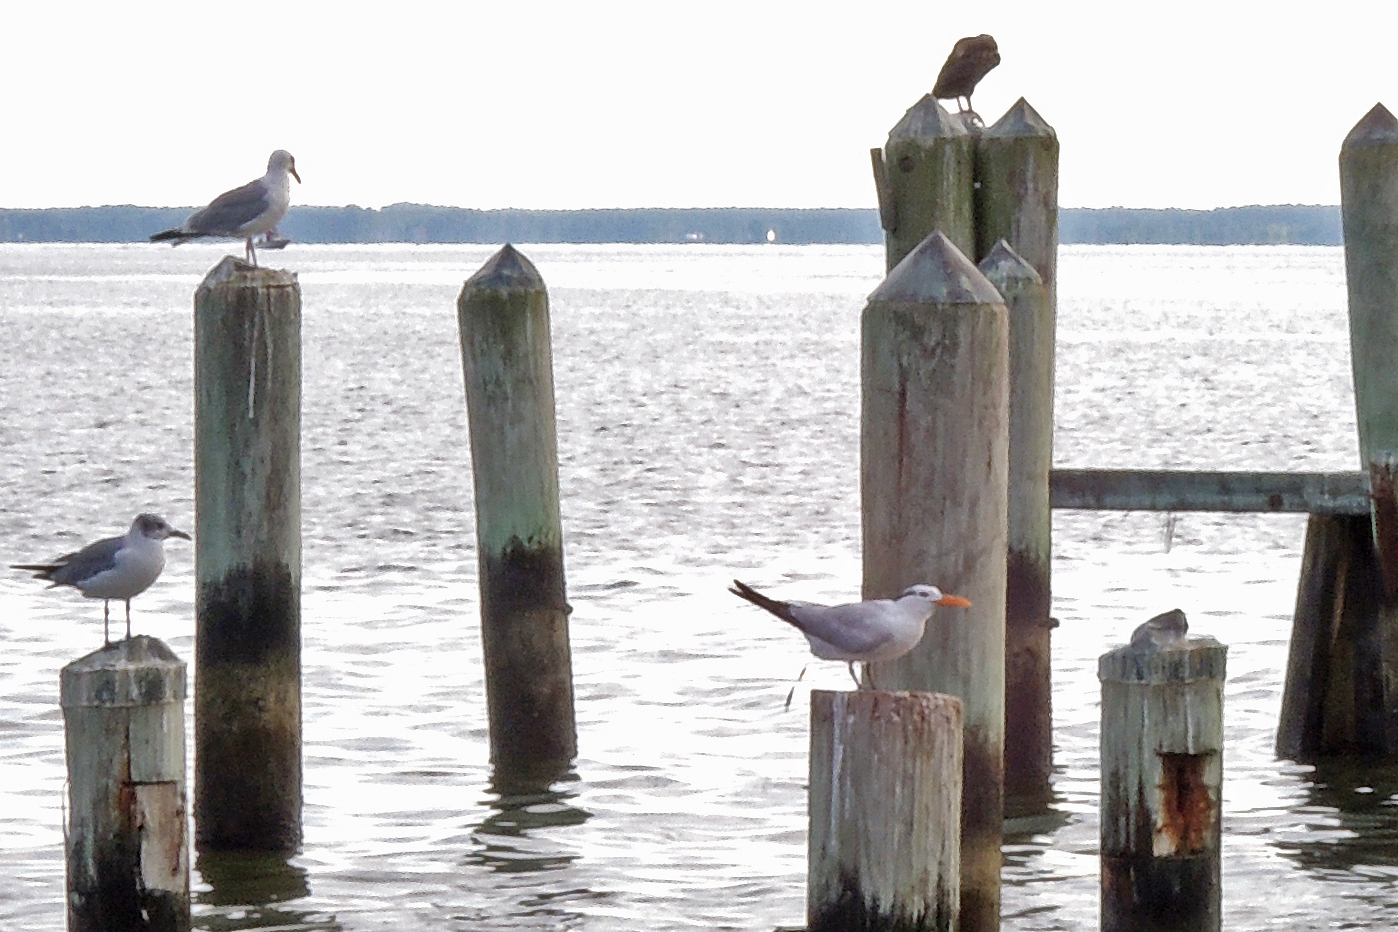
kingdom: Animalia
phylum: Chordata
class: Aves
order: Charadriiformes
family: Laridae
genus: Thalasseus
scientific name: Thalasseus maximus
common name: Royal tern
